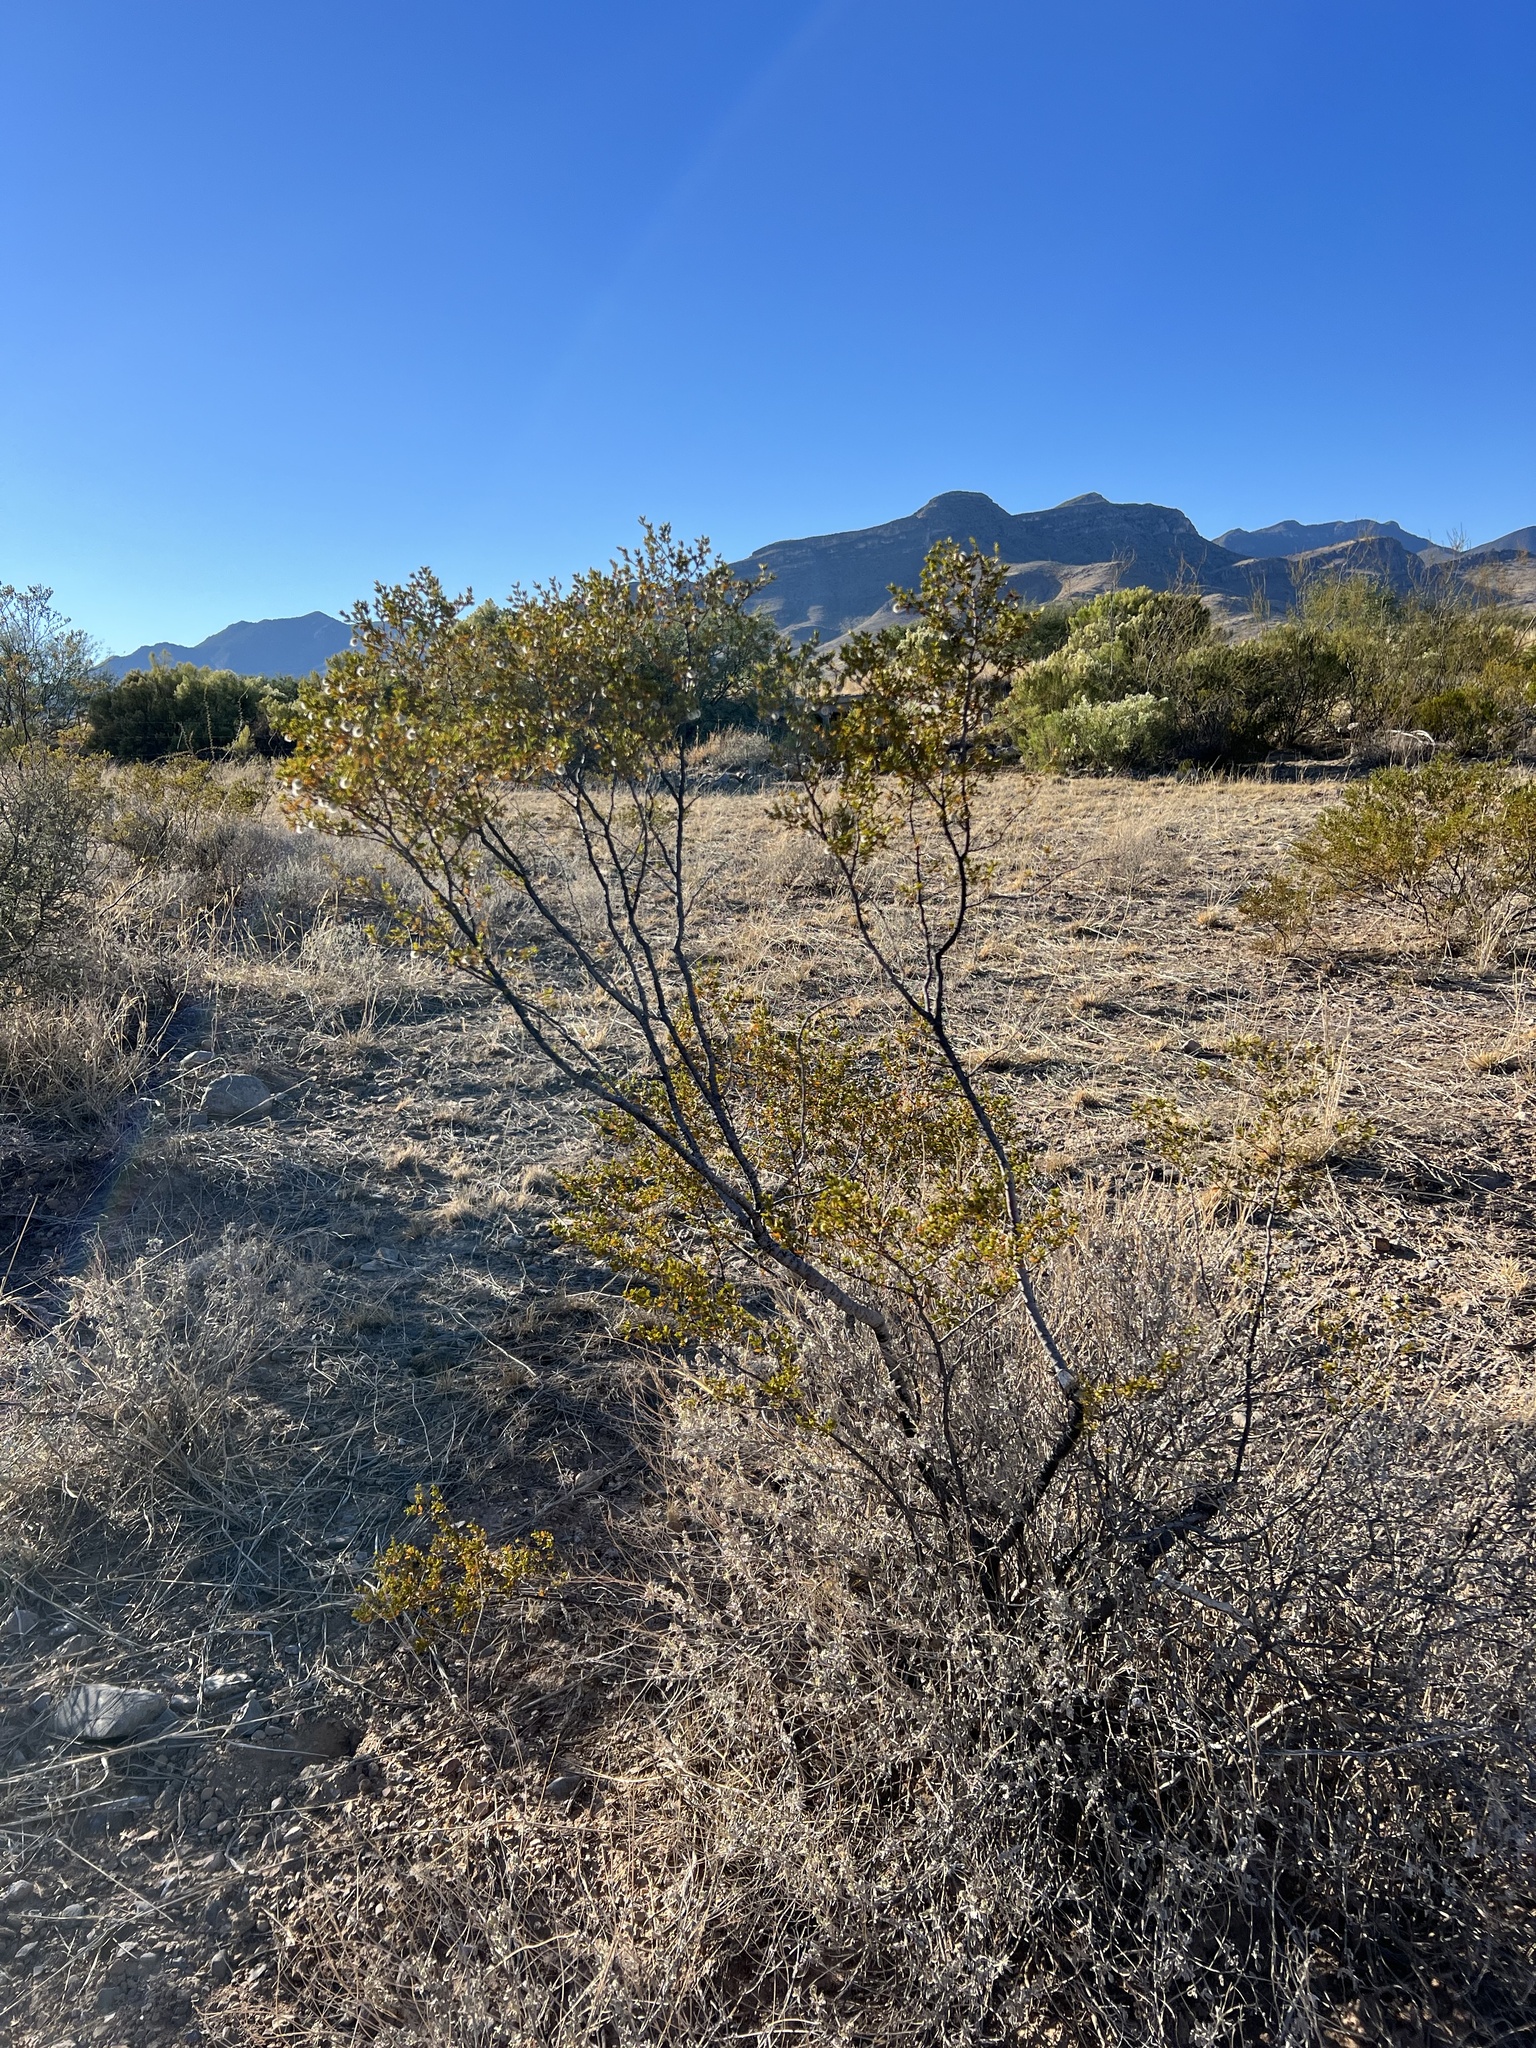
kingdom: Plantae
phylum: Tracheophyta
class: Magnoliopsida
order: Zygophyllales
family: Zygophyllaceae
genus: Larrea
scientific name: Larrea tridentata
